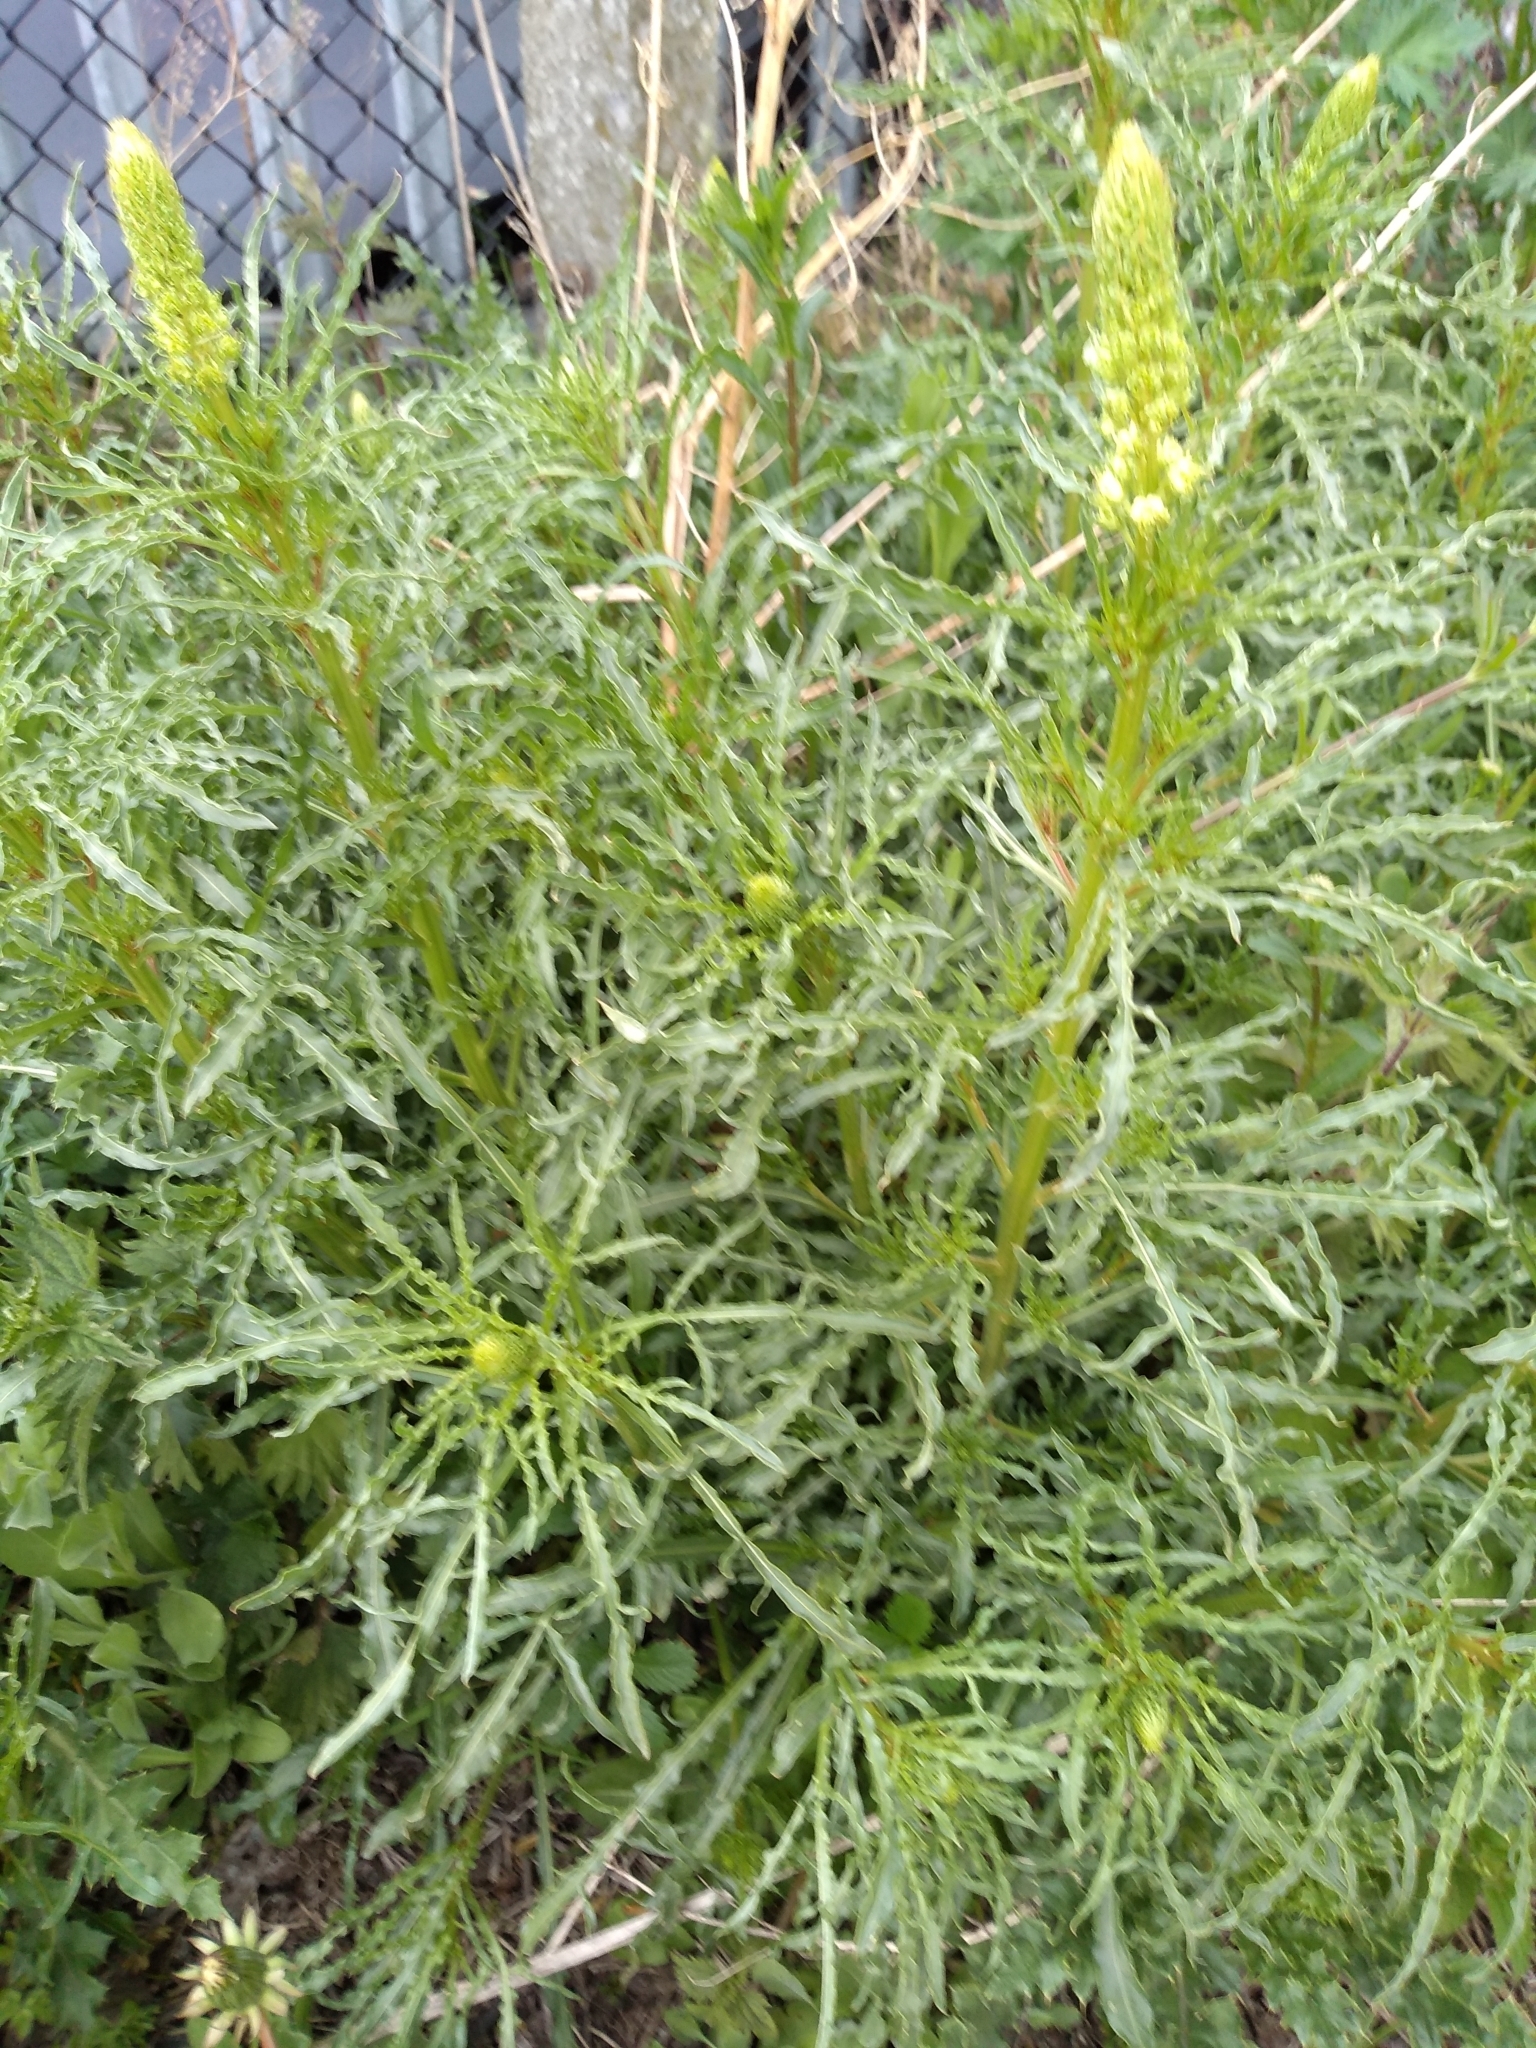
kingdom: Plantae
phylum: Tracheophyta
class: Magnoliopsida
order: Brassicales
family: Resedaceae
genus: Reseda
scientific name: Reseda lutea
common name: Wild mignonette
